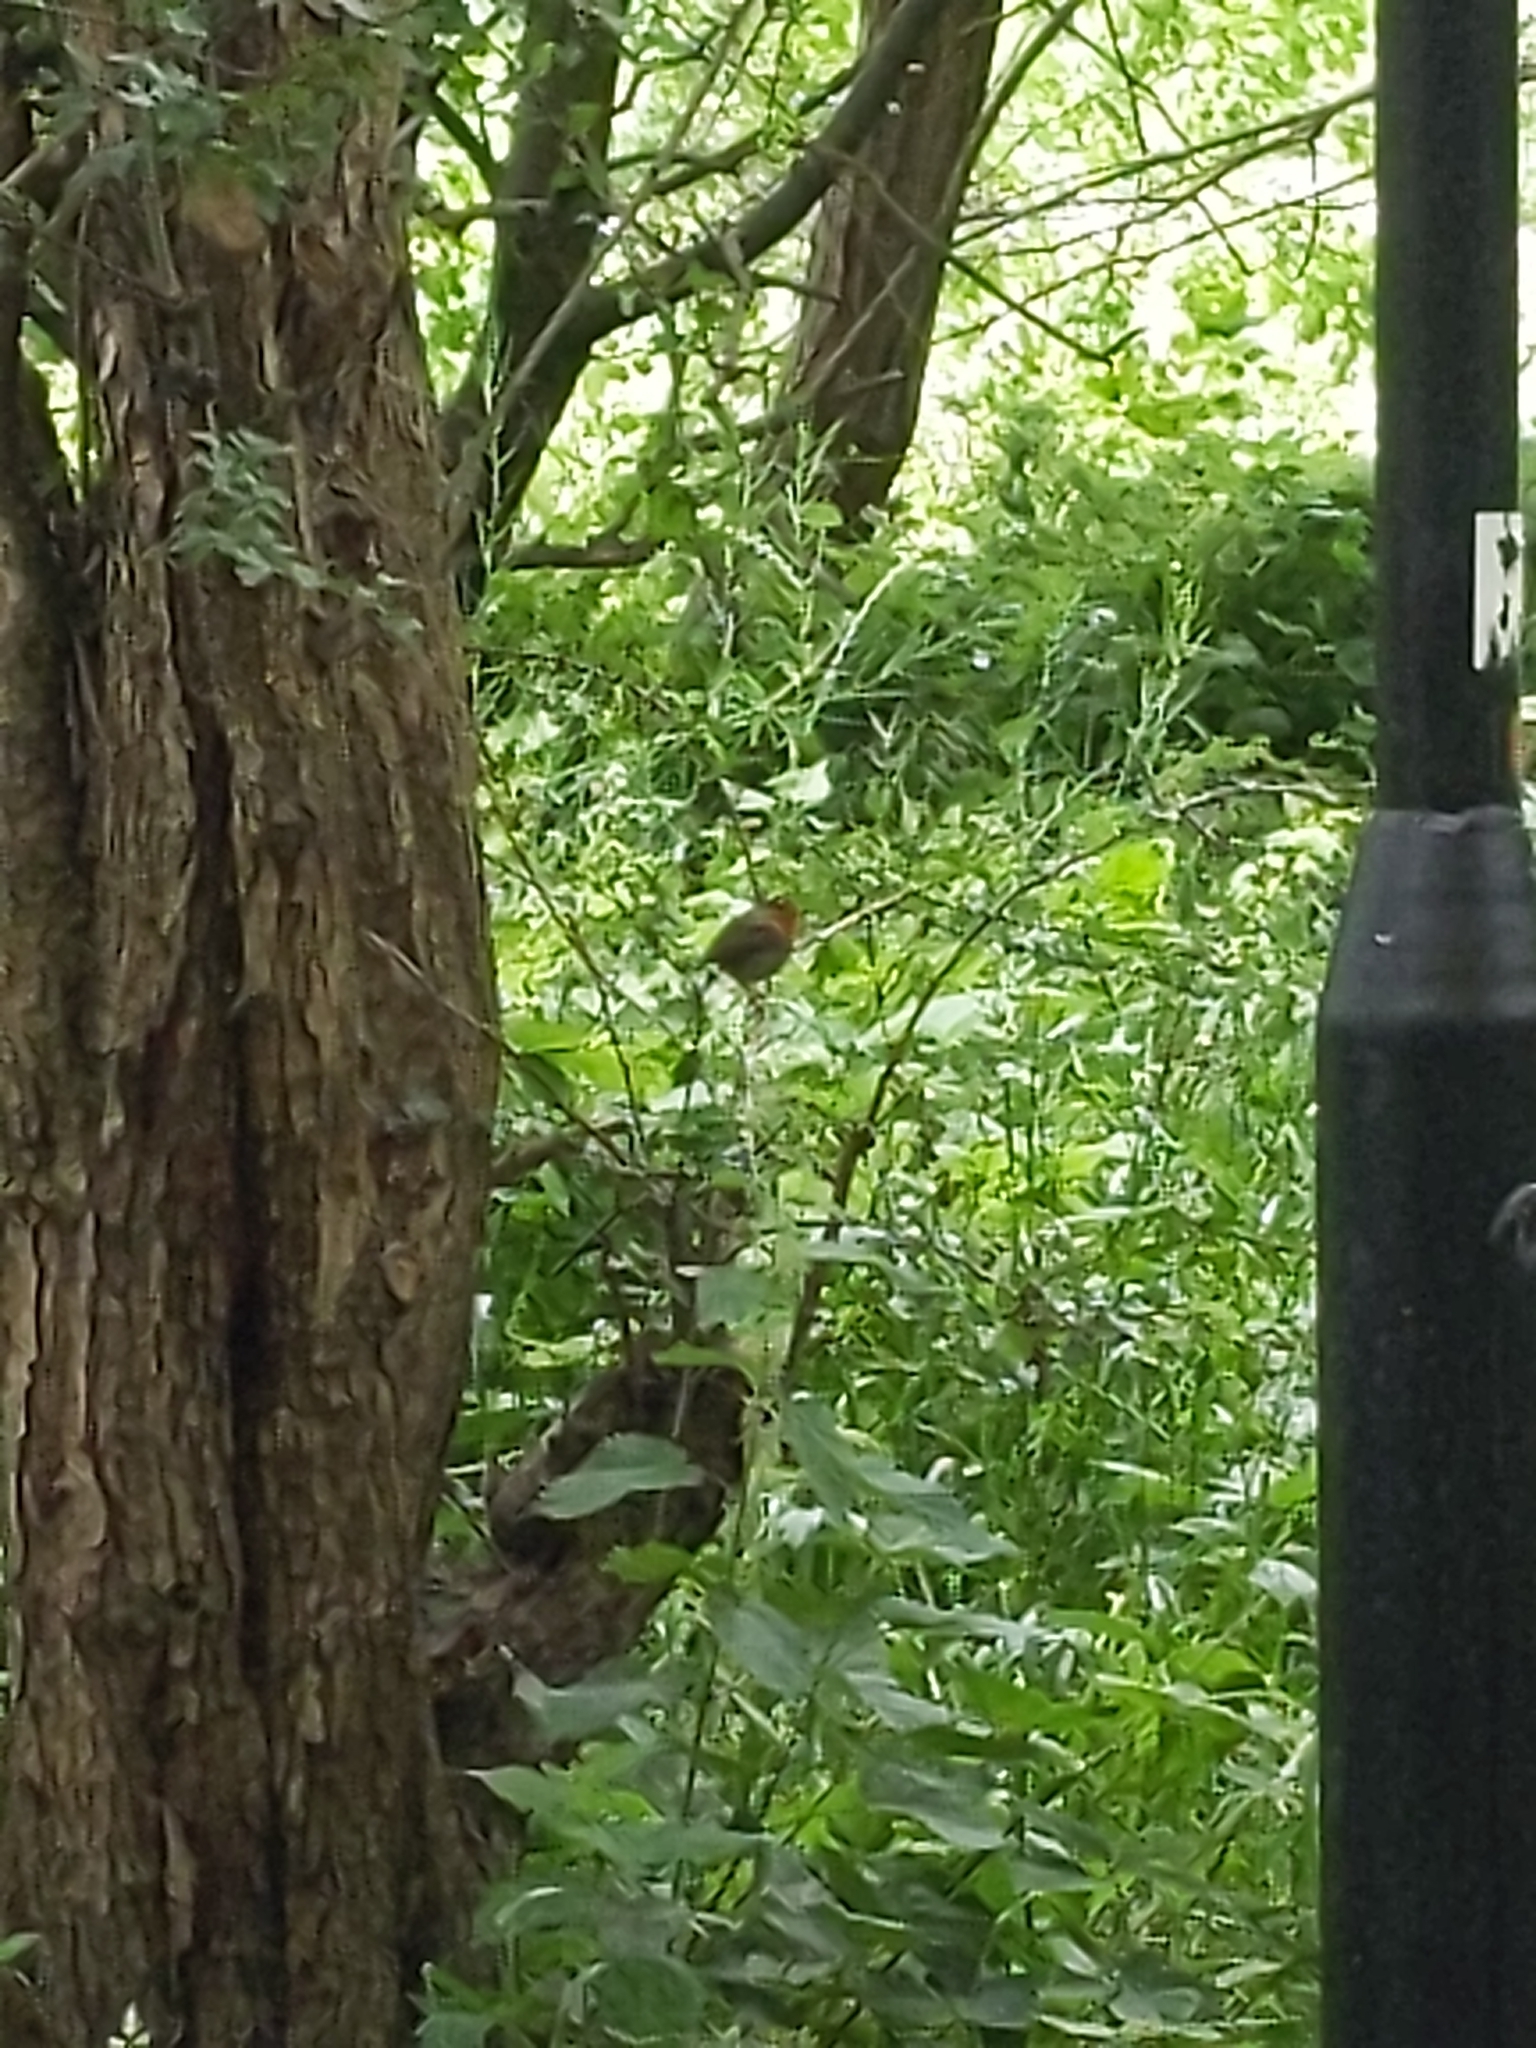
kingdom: Animalia
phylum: Chordata
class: Aves
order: Passeriformes
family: Muscicapidae
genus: Erithacus
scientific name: Erithacus rubecula
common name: European robin
